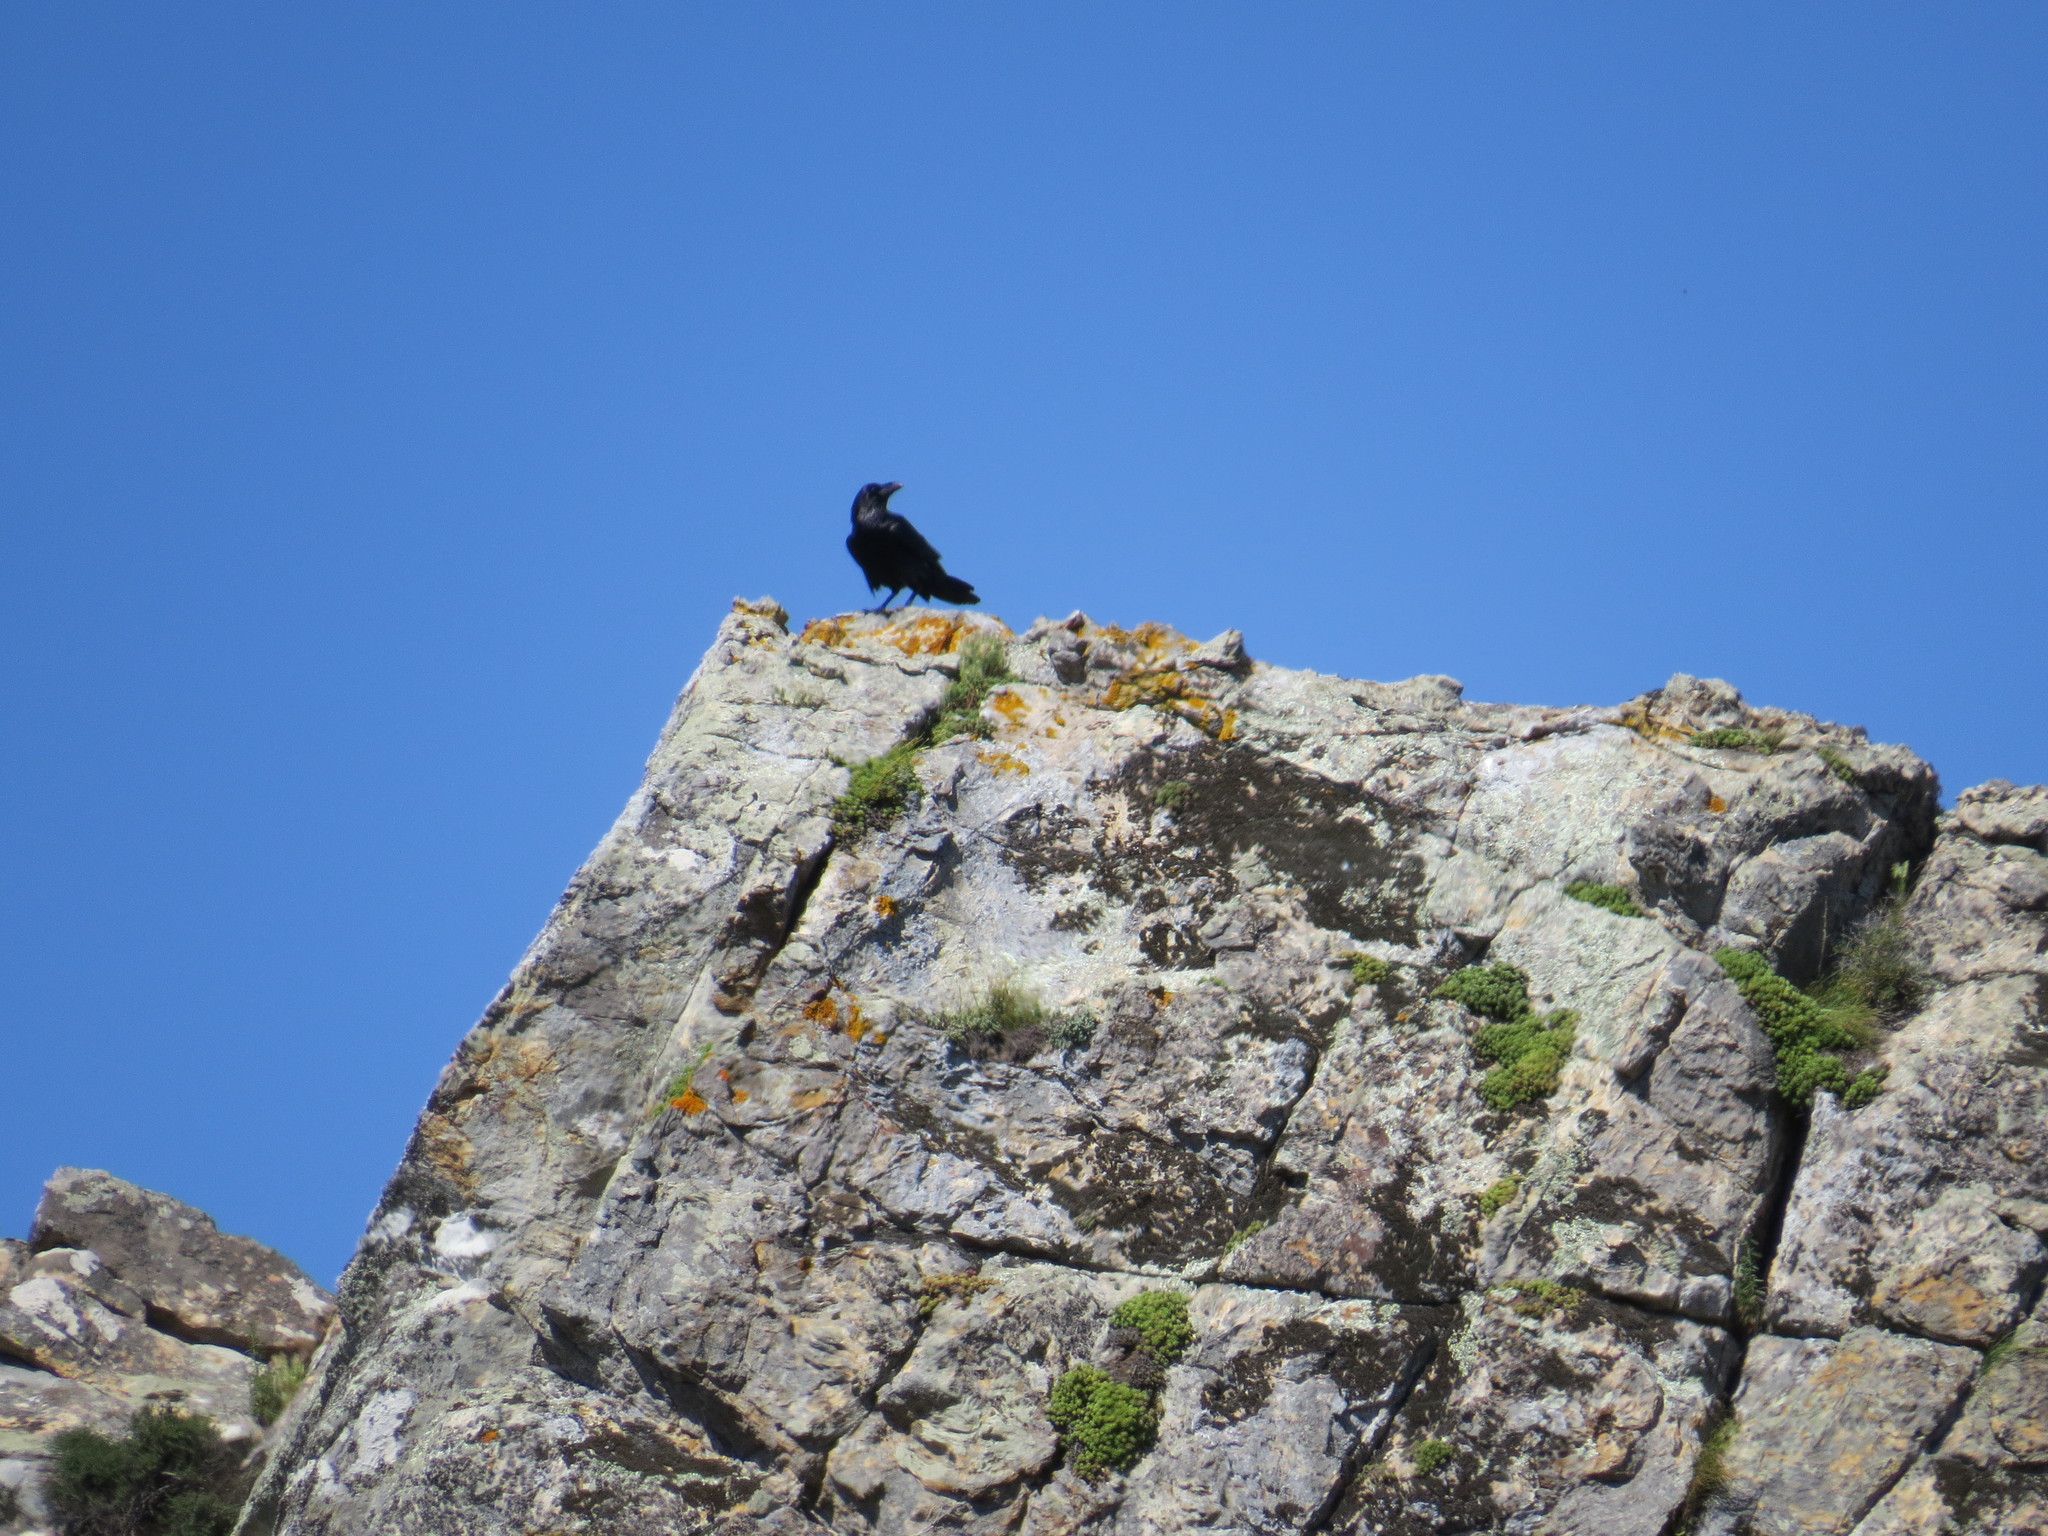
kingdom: Animalia
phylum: Chordata
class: Aves
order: Passeriformes
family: Corvidae
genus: Corvus
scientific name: Corvus corax
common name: Common raven
